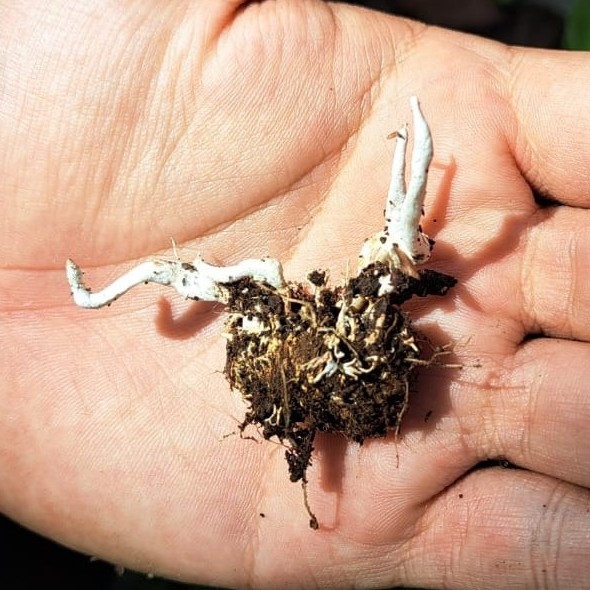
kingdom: Fungi
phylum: Ascomycota
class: Sordariomycetes
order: Hypocreales
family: Cordycipitaceae
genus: Cordyceps
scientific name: Cordyceps tenuipes
